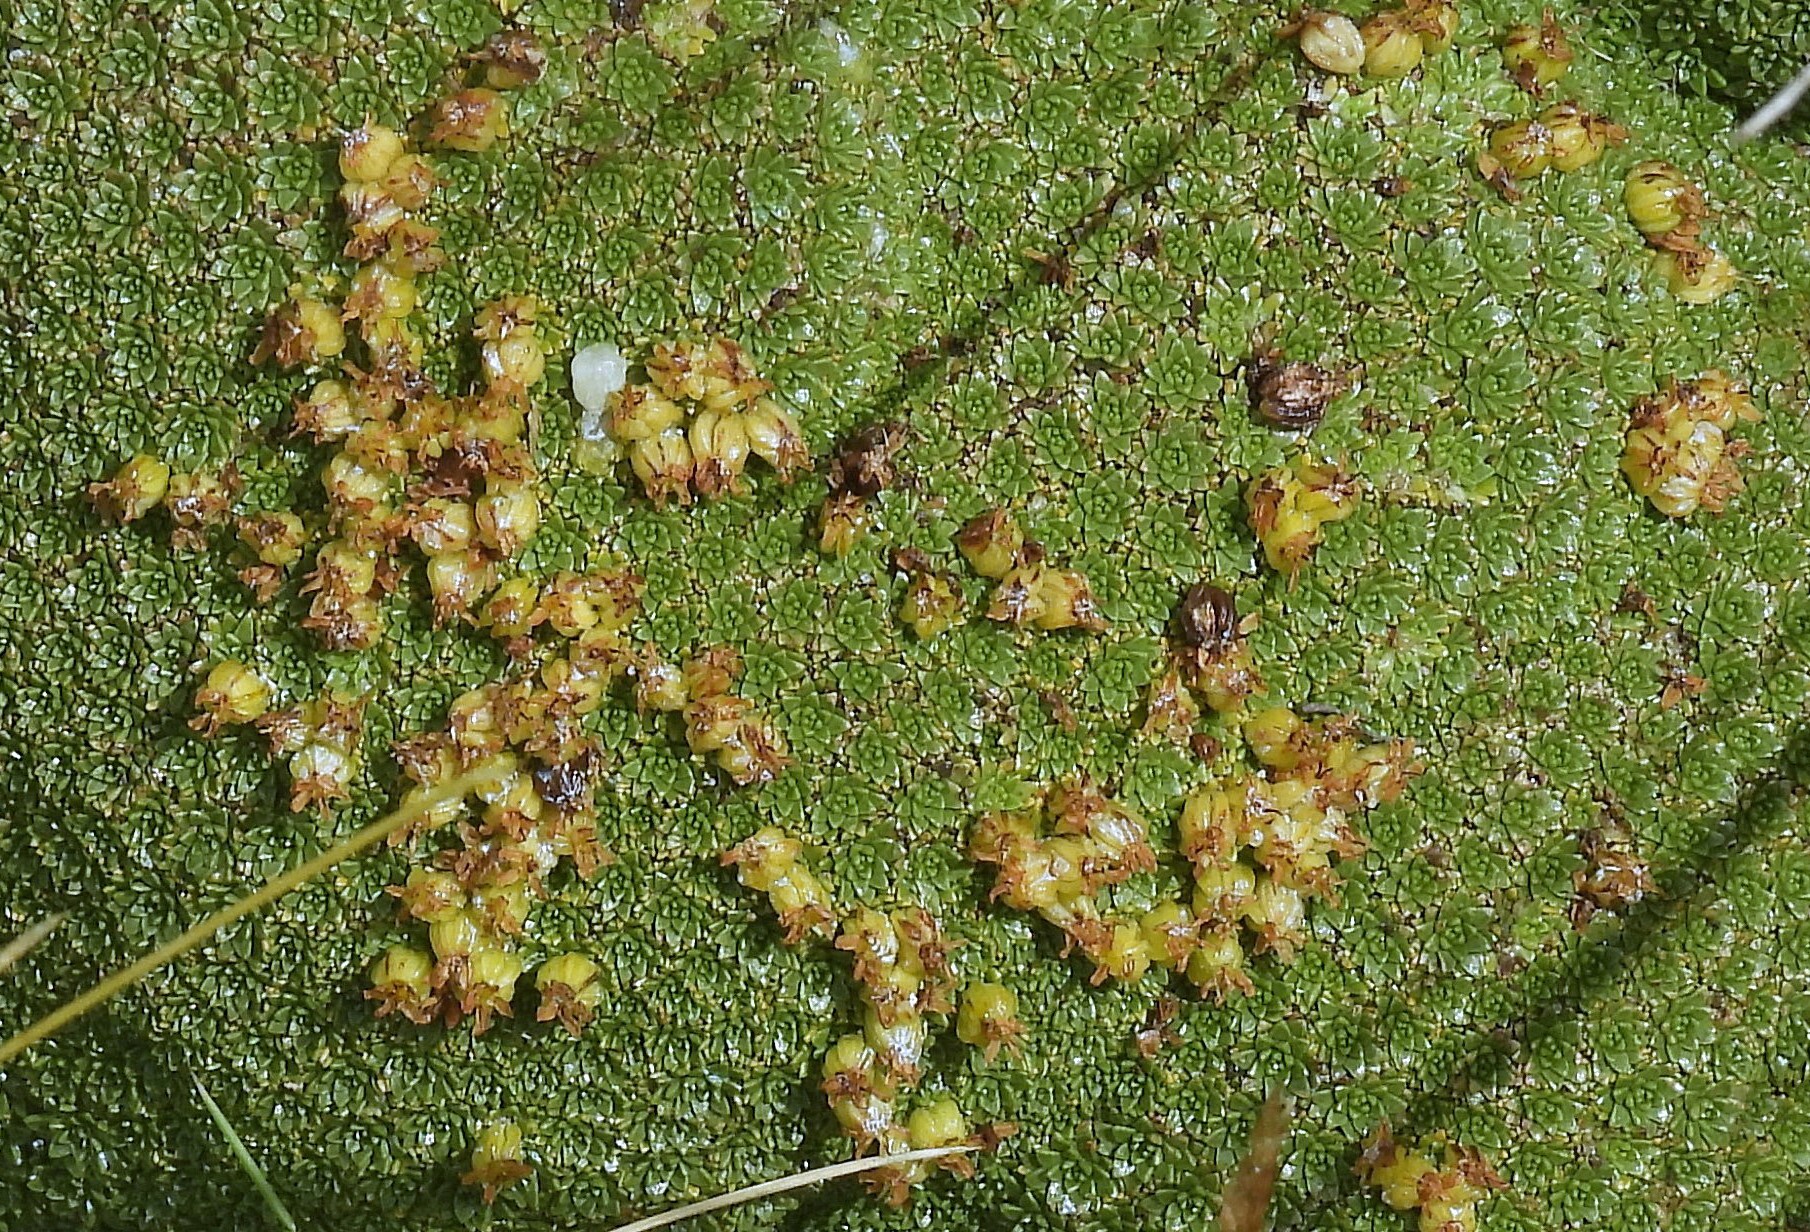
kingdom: Plantae
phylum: Tracheophyta
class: Magnoliopsida
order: Apiales
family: Apiaceae
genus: Azorella
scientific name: Azorella compacta
